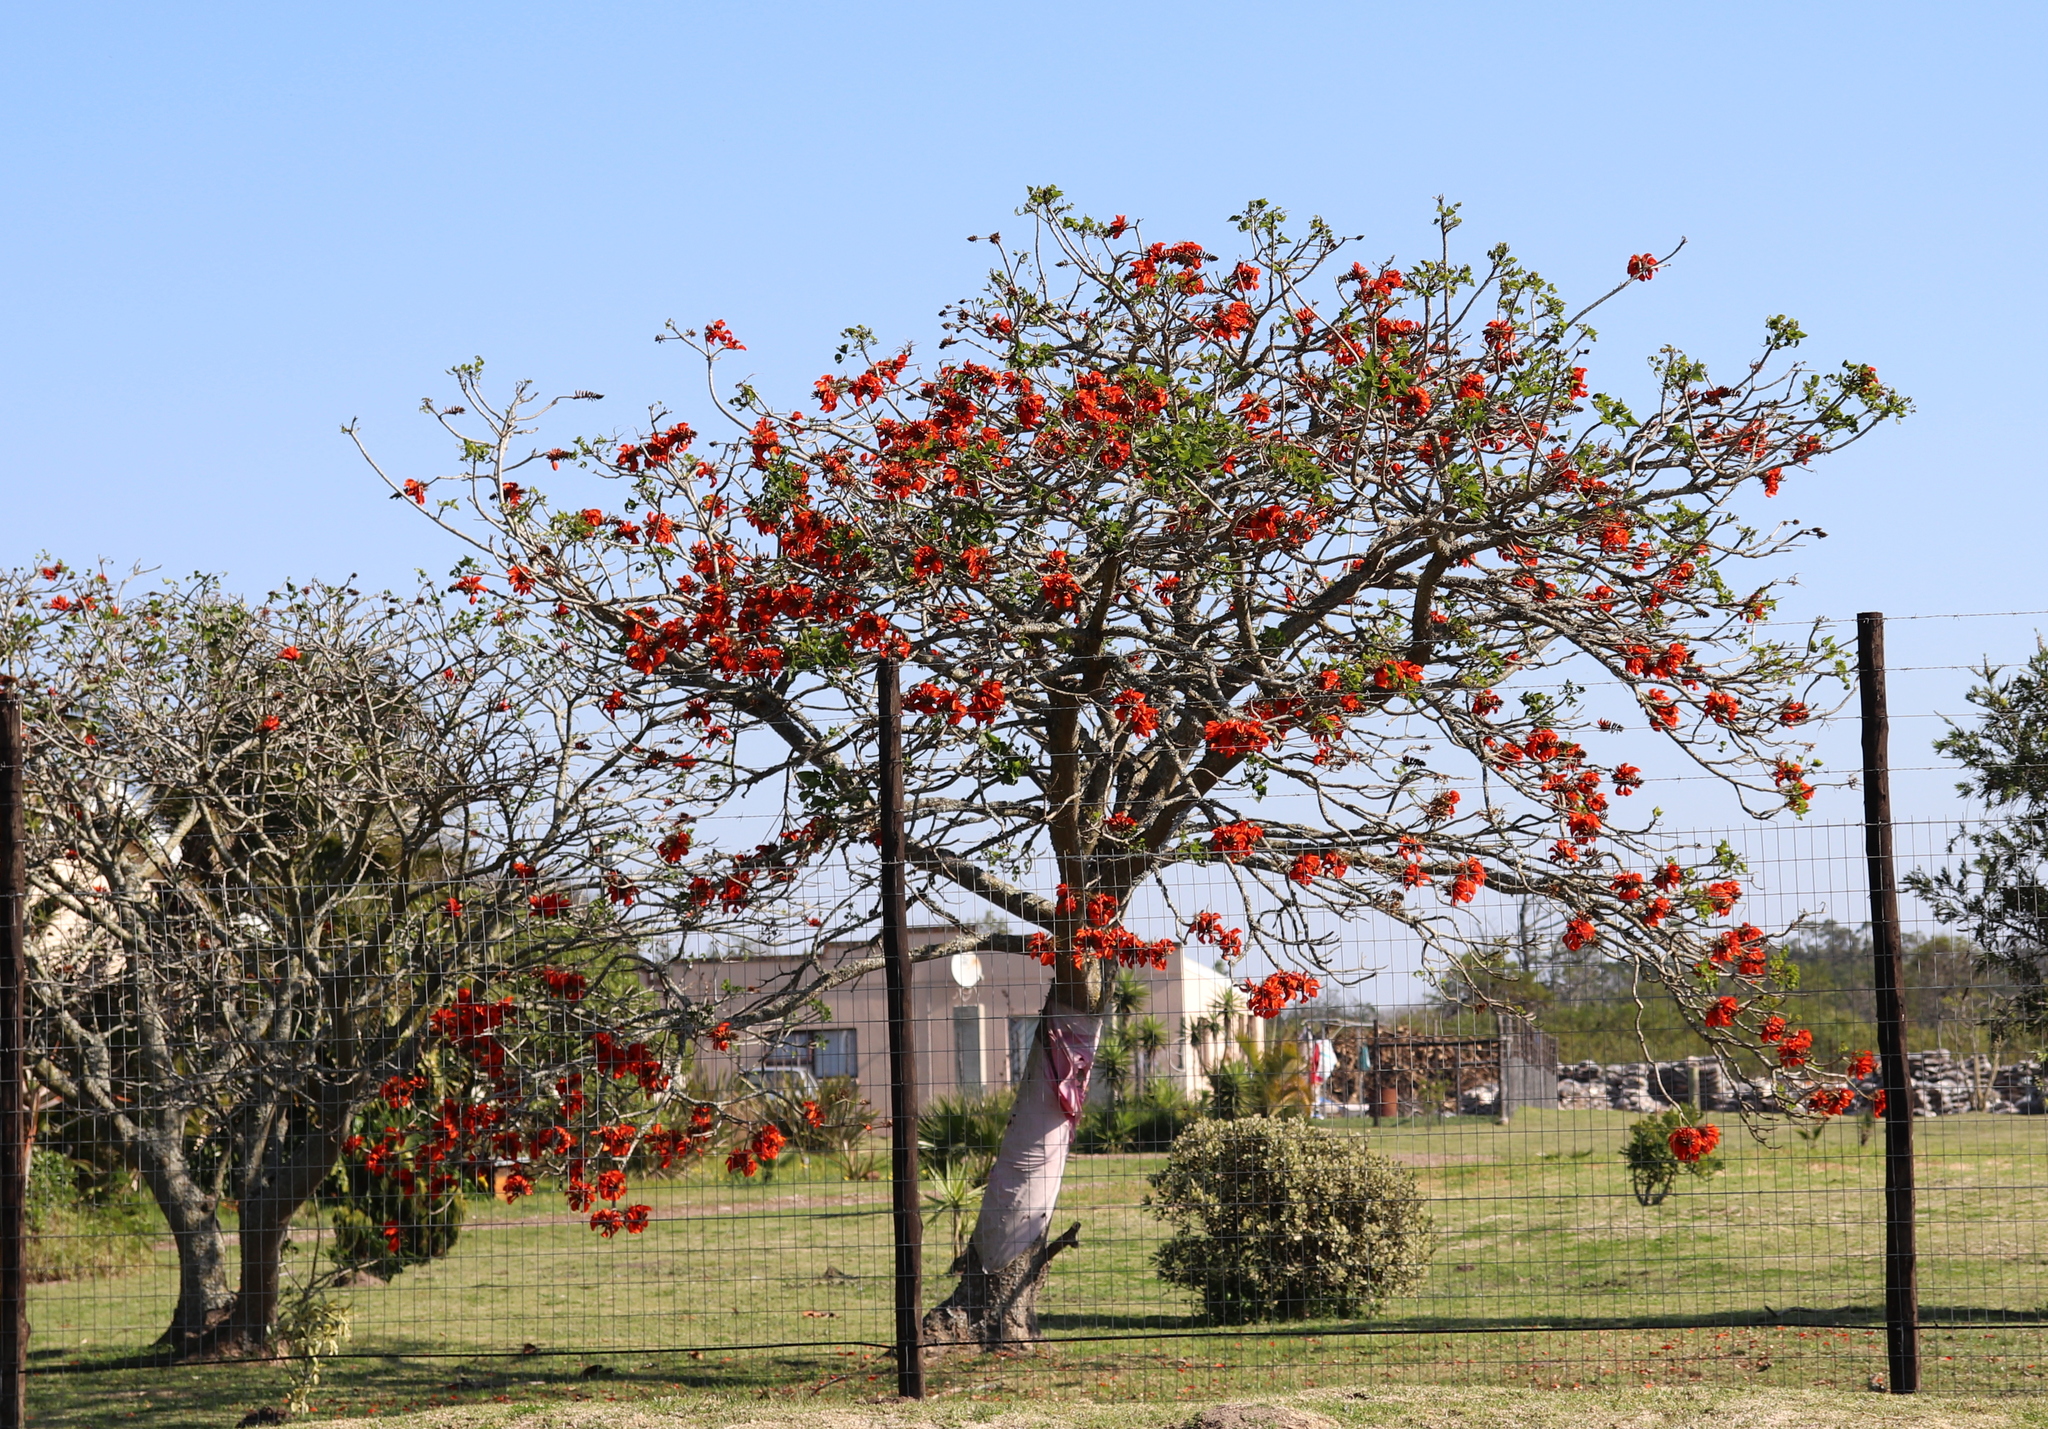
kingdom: Plantae
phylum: Tracheophyta
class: Magnoliopsida
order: Fabales
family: Fabaceae
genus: Erythrina
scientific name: Erythrina caffra
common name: Coast coral tree
